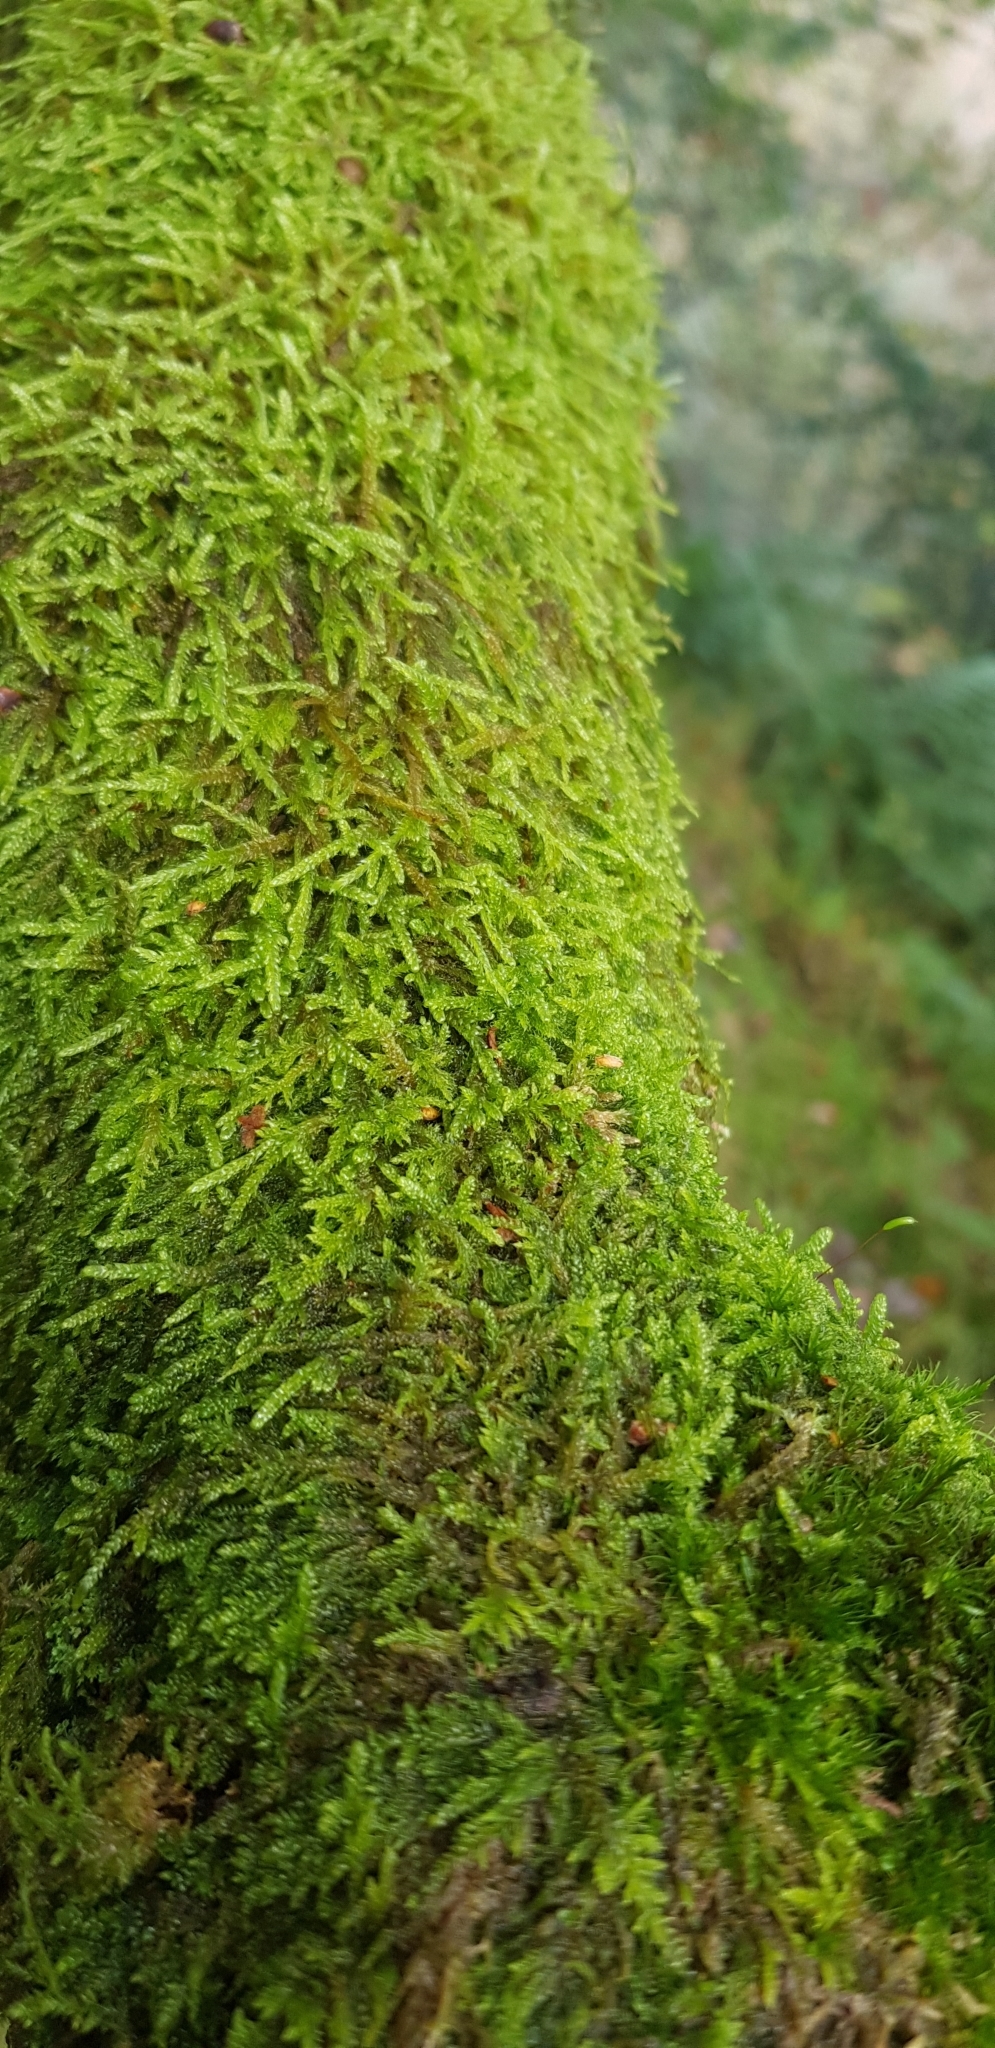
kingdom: Plantae
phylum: Bryophyta
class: Bryopsida
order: Hypnales
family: Hypnaceae
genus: Hypnum
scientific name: Hypnum cupressiforme
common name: Cypress-leaved plait-moss
